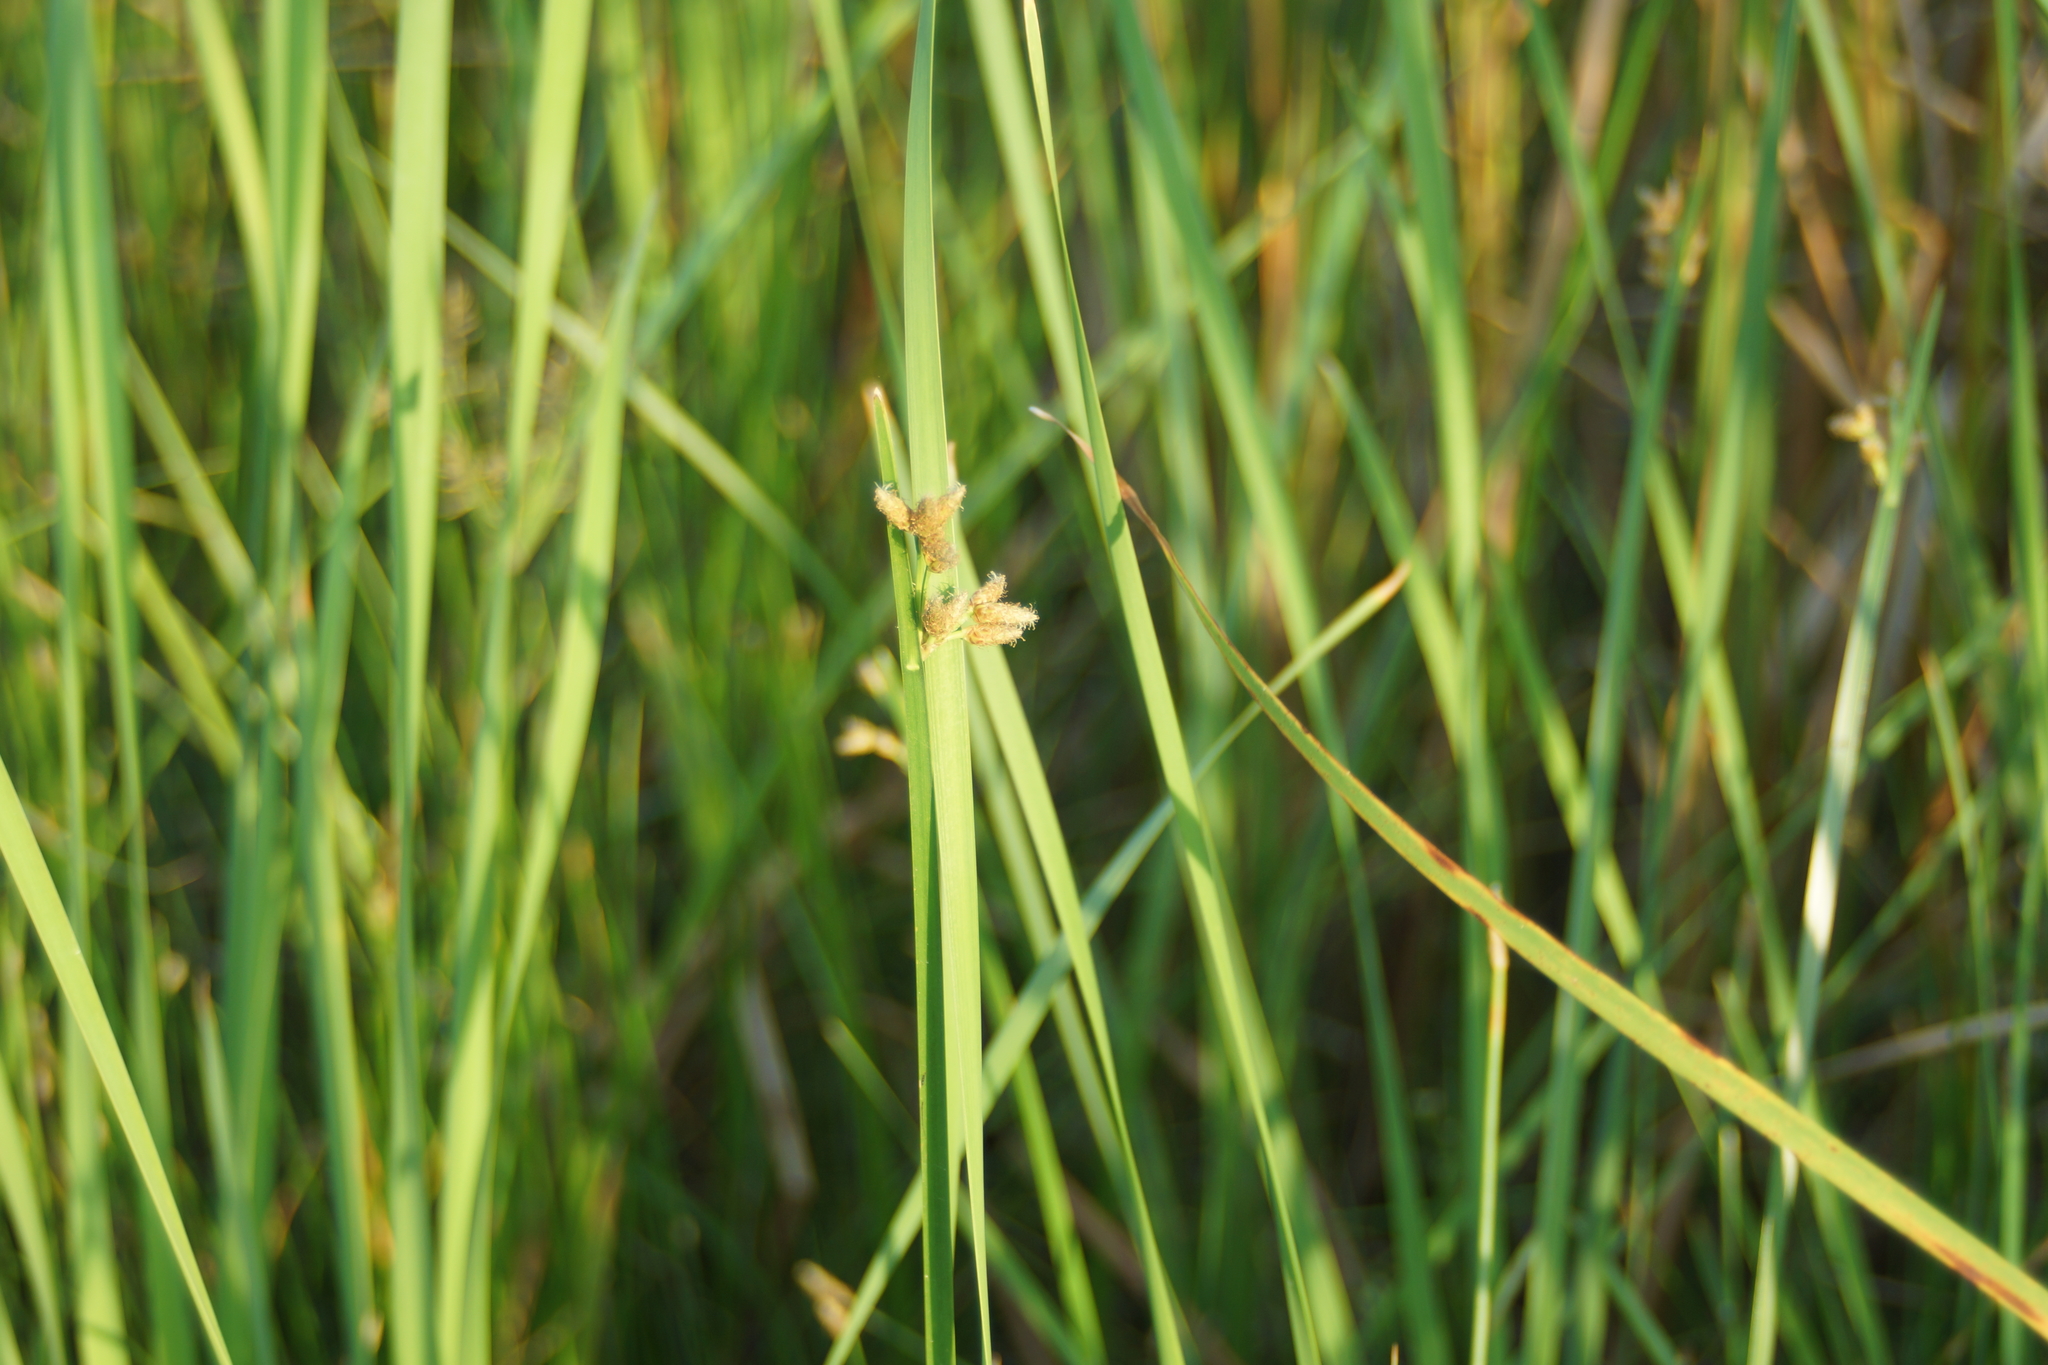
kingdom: Plantae
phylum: Tracheophyta
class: Liliopsida
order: Poales
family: Cyperaceae
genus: Bolboschoenus
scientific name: Bolboschoenus maritimus
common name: Sea club-rush
